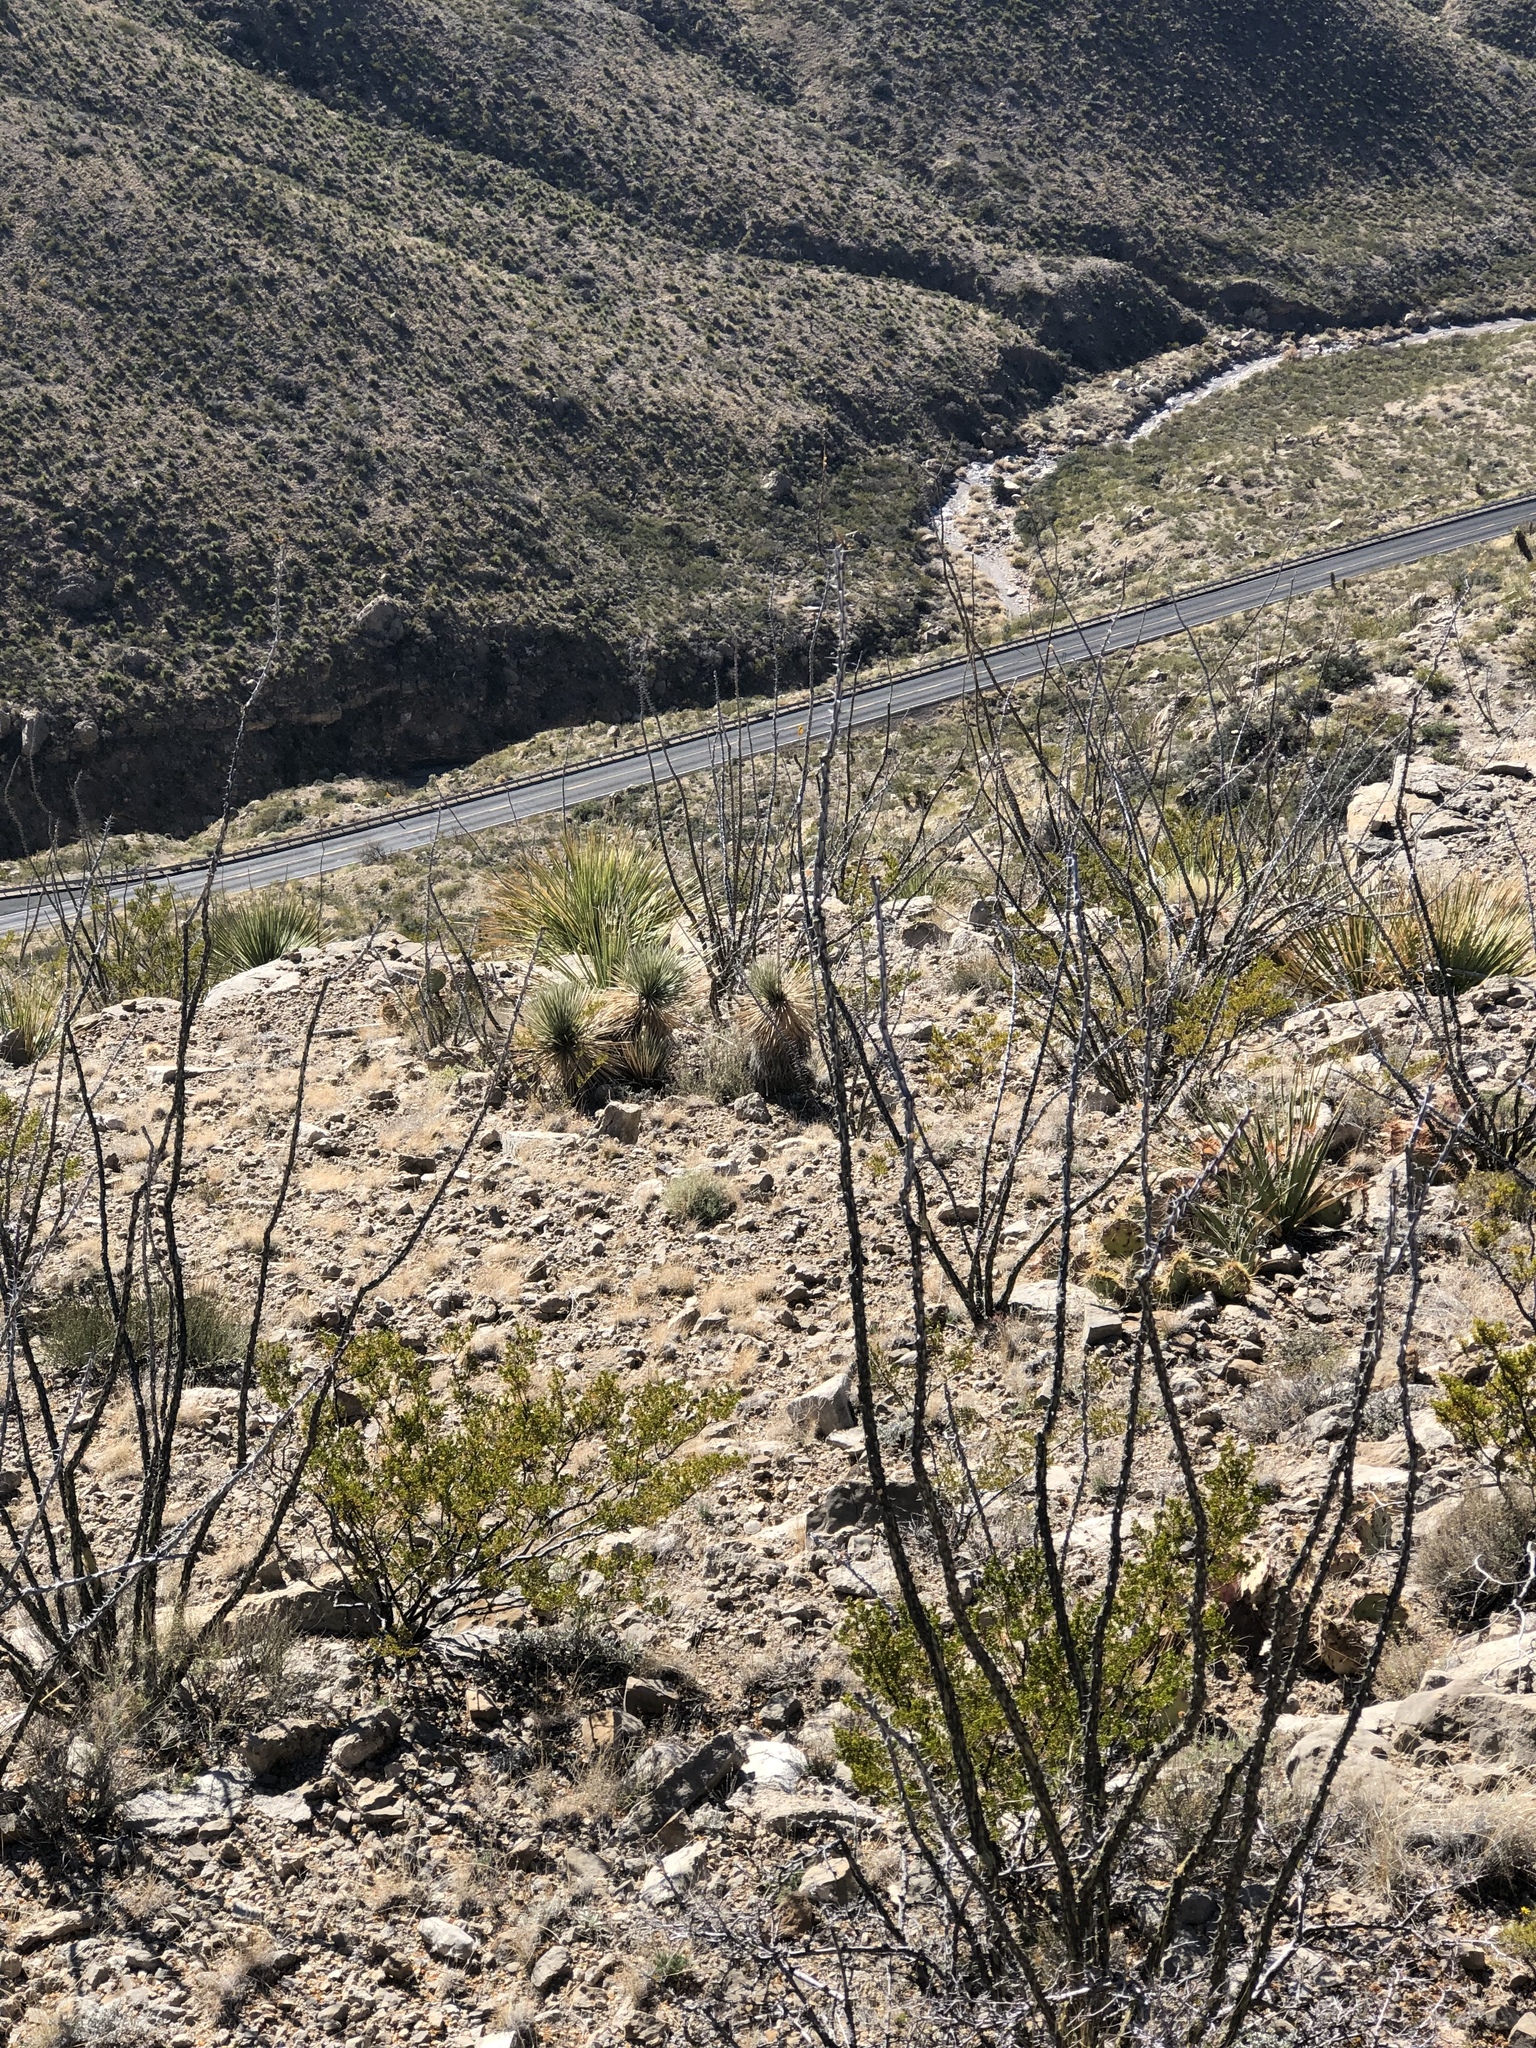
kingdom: Plantae
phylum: Tracheophyta
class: Magnoliopsida
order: Ericales
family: Fouquieriaceae
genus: Fouquieria
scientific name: Fouquieria splendens
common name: Vine-cactus
